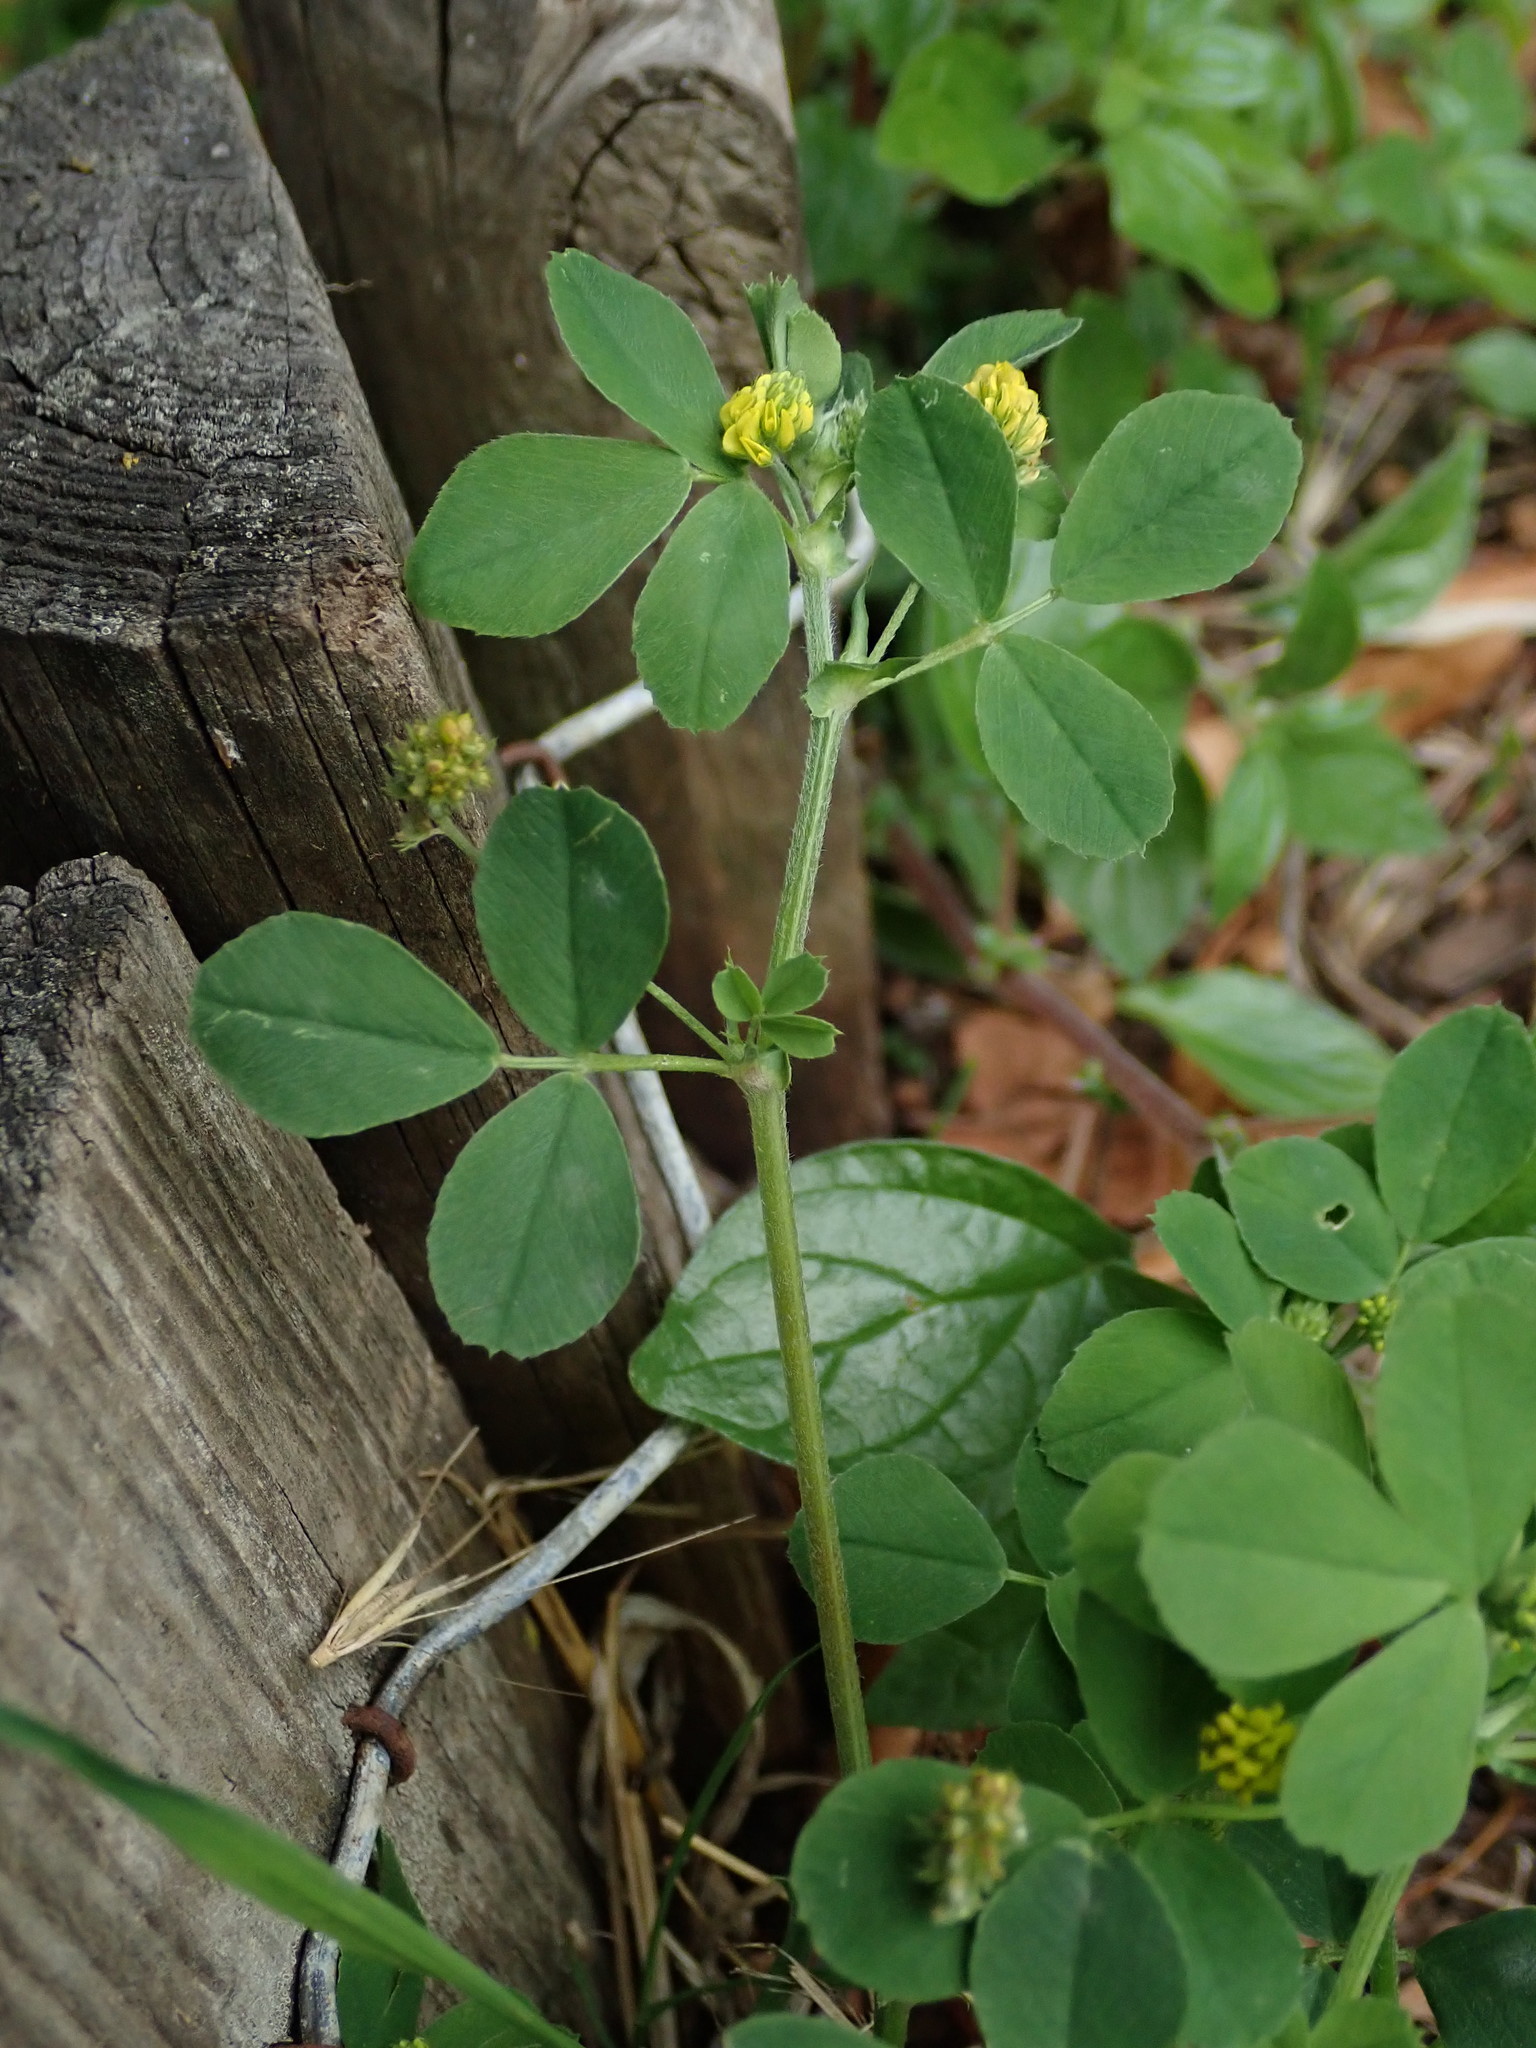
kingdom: Plantae
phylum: Tracheophyta
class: Magnoliopsida
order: Fabales
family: Fabaceae
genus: Medicago
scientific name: Medicago lupulina
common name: Black medick
